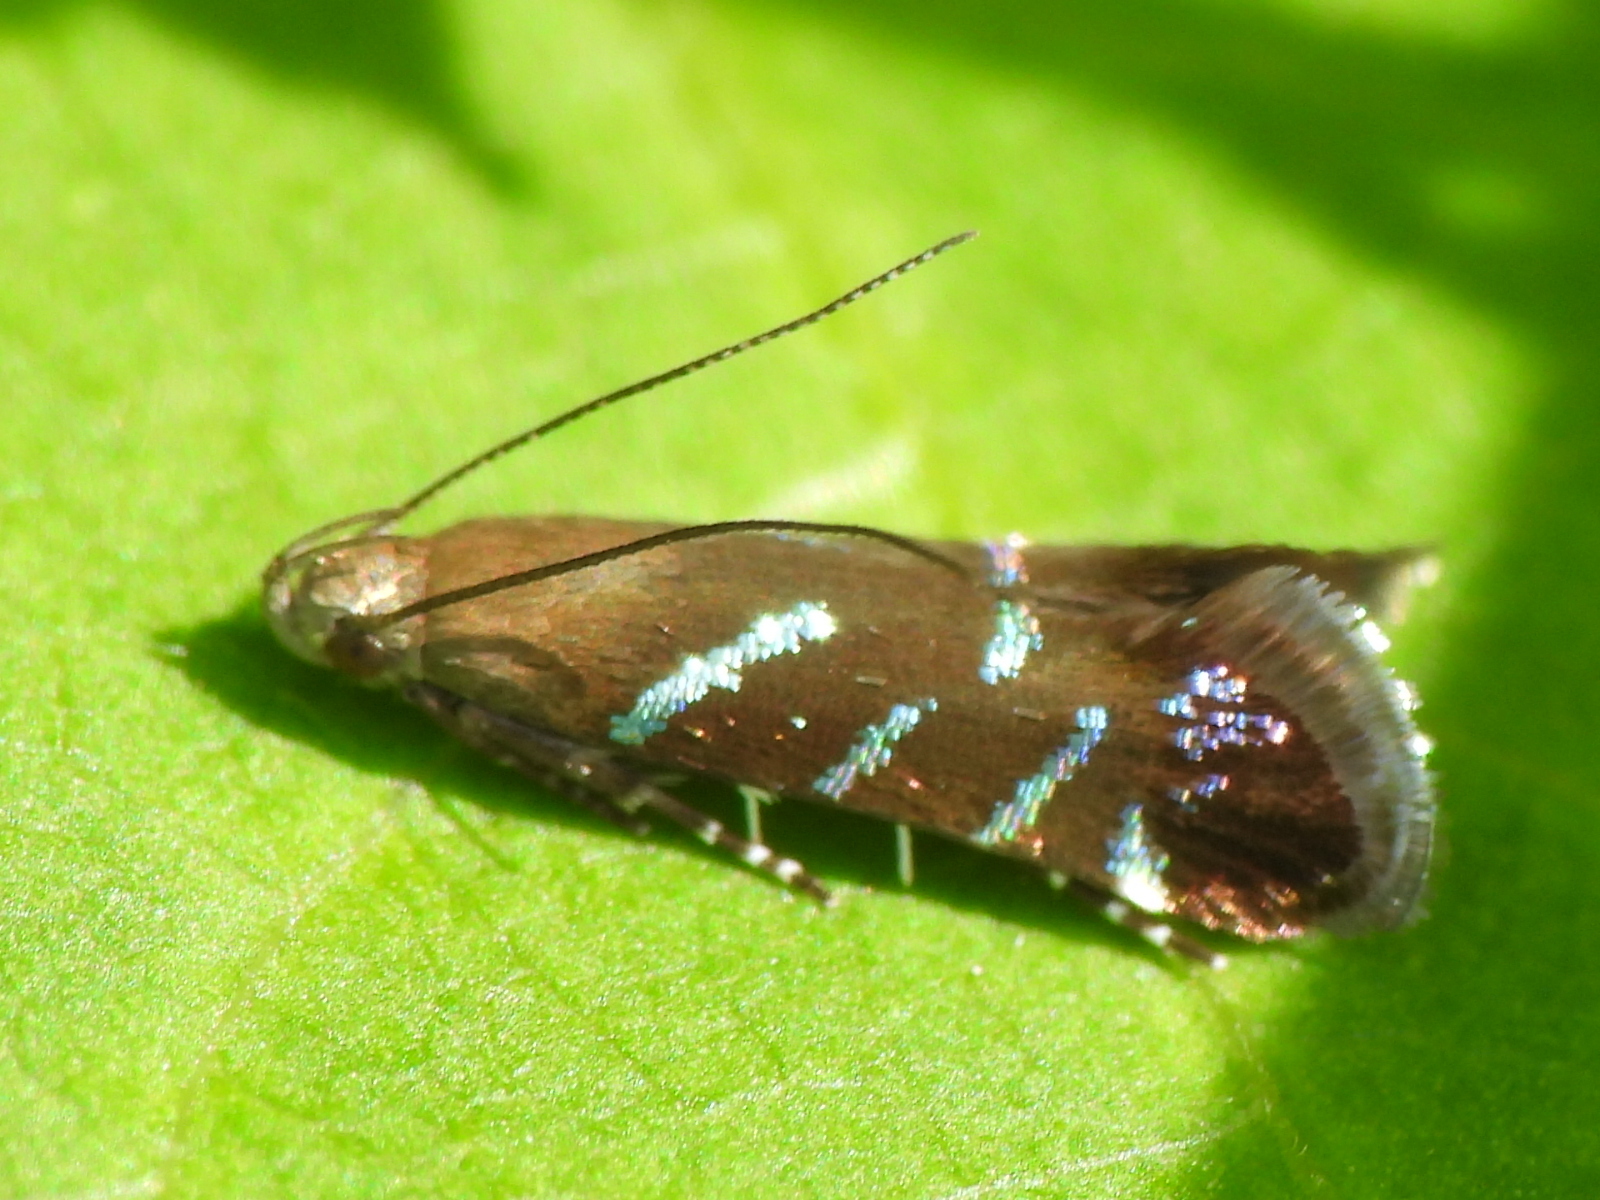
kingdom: Animalia
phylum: Arthropoda
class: Insecta
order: Lepidoptera
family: Gelechiidae
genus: Strobisia
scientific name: Strobisia proserpinella
